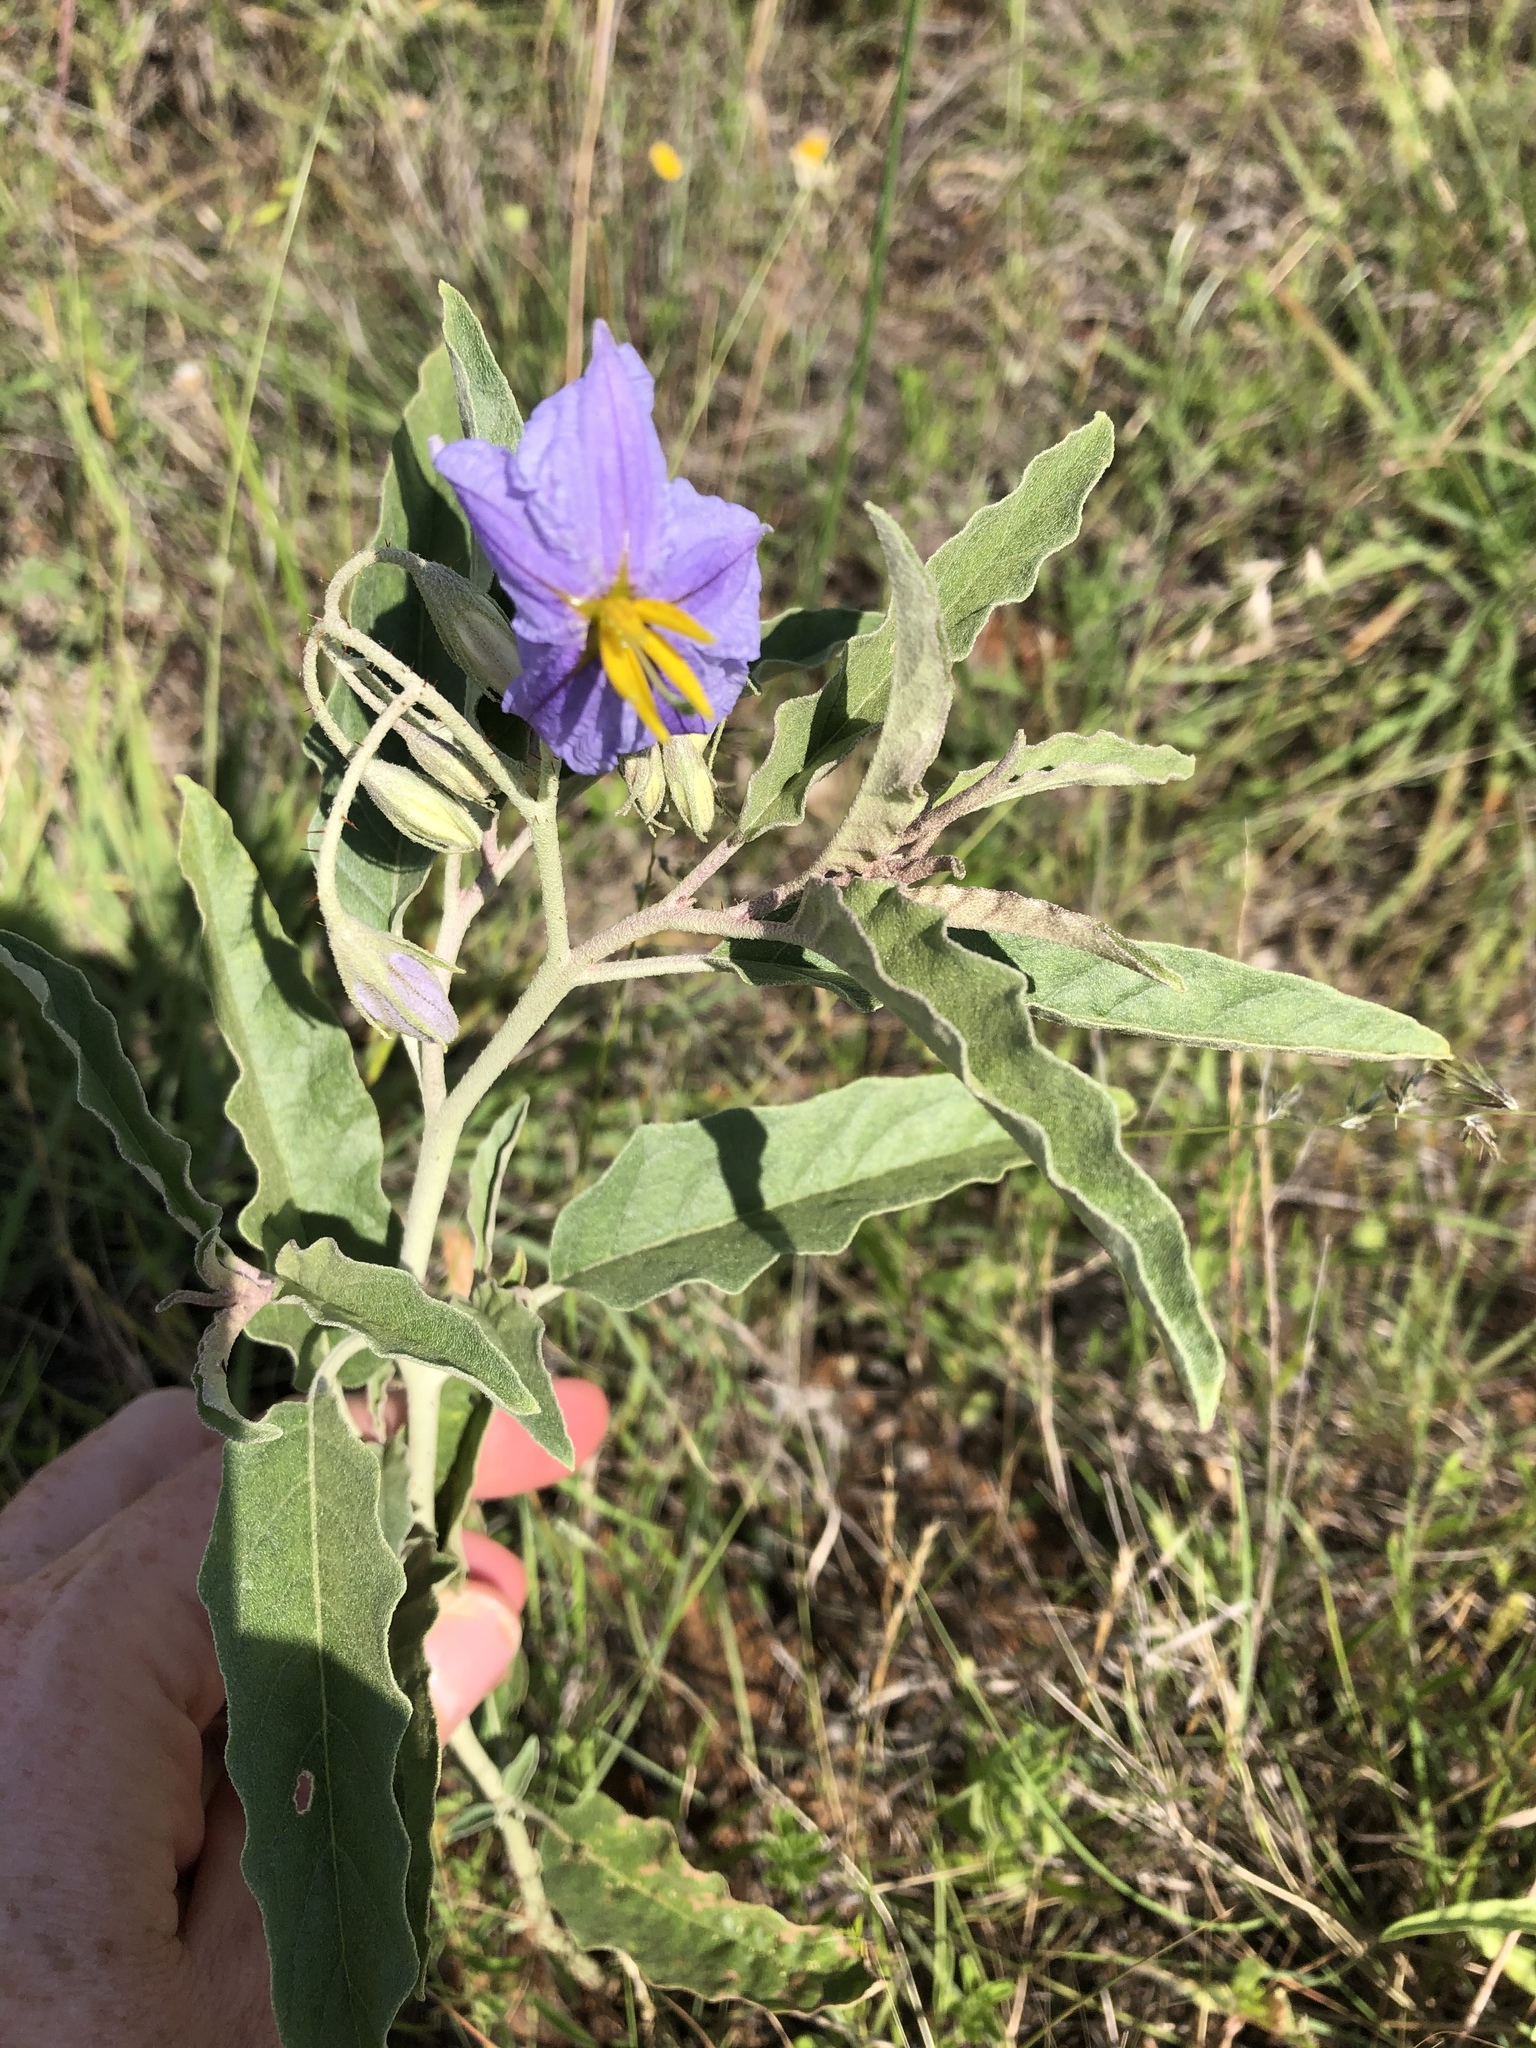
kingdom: Plantae
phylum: Tracheophyta
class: Magnoliopsida
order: Solanales
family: Solanaceae
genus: Solanum
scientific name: Solanum elaeagnifolium
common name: Silverleaf nightshade
